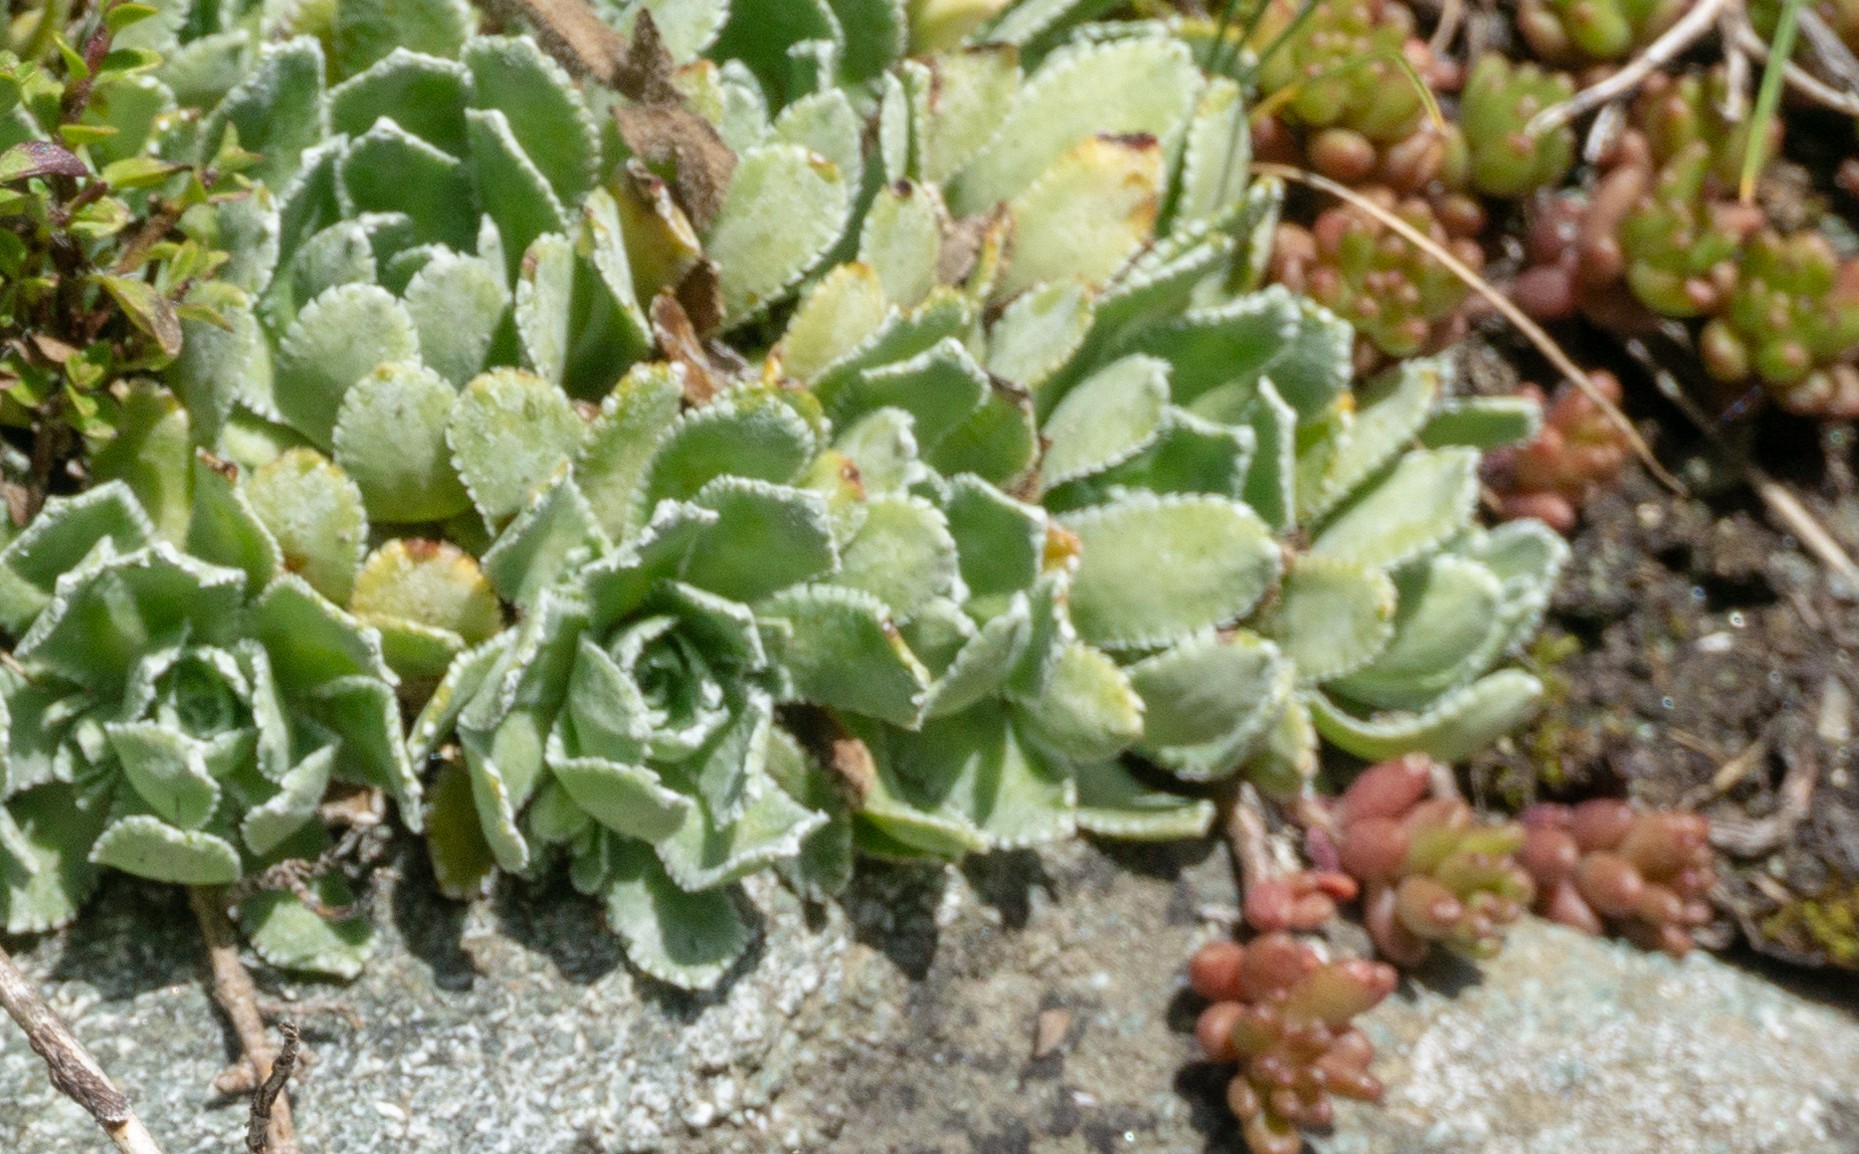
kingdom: Plantae
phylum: Tracheophyta
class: Magnoliopsida
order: Saxifragales
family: Saxifragaceae
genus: Saxifraga
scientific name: Saxifraga paniculata
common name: Livelong saxifrage
